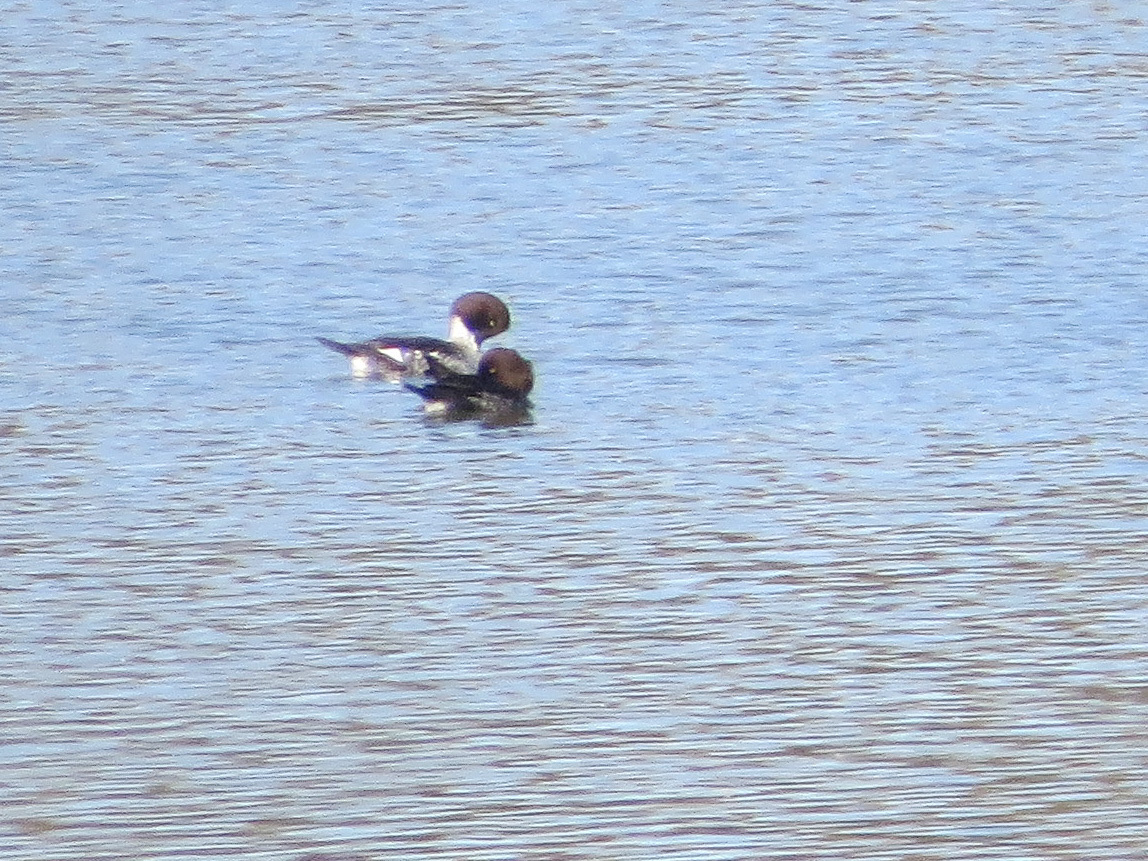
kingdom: Animalia
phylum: Chordata
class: Aves
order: Anseriformes
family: Anatidae
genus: Bucephala
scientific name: Bucephala clangula
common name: Common goldeneye
